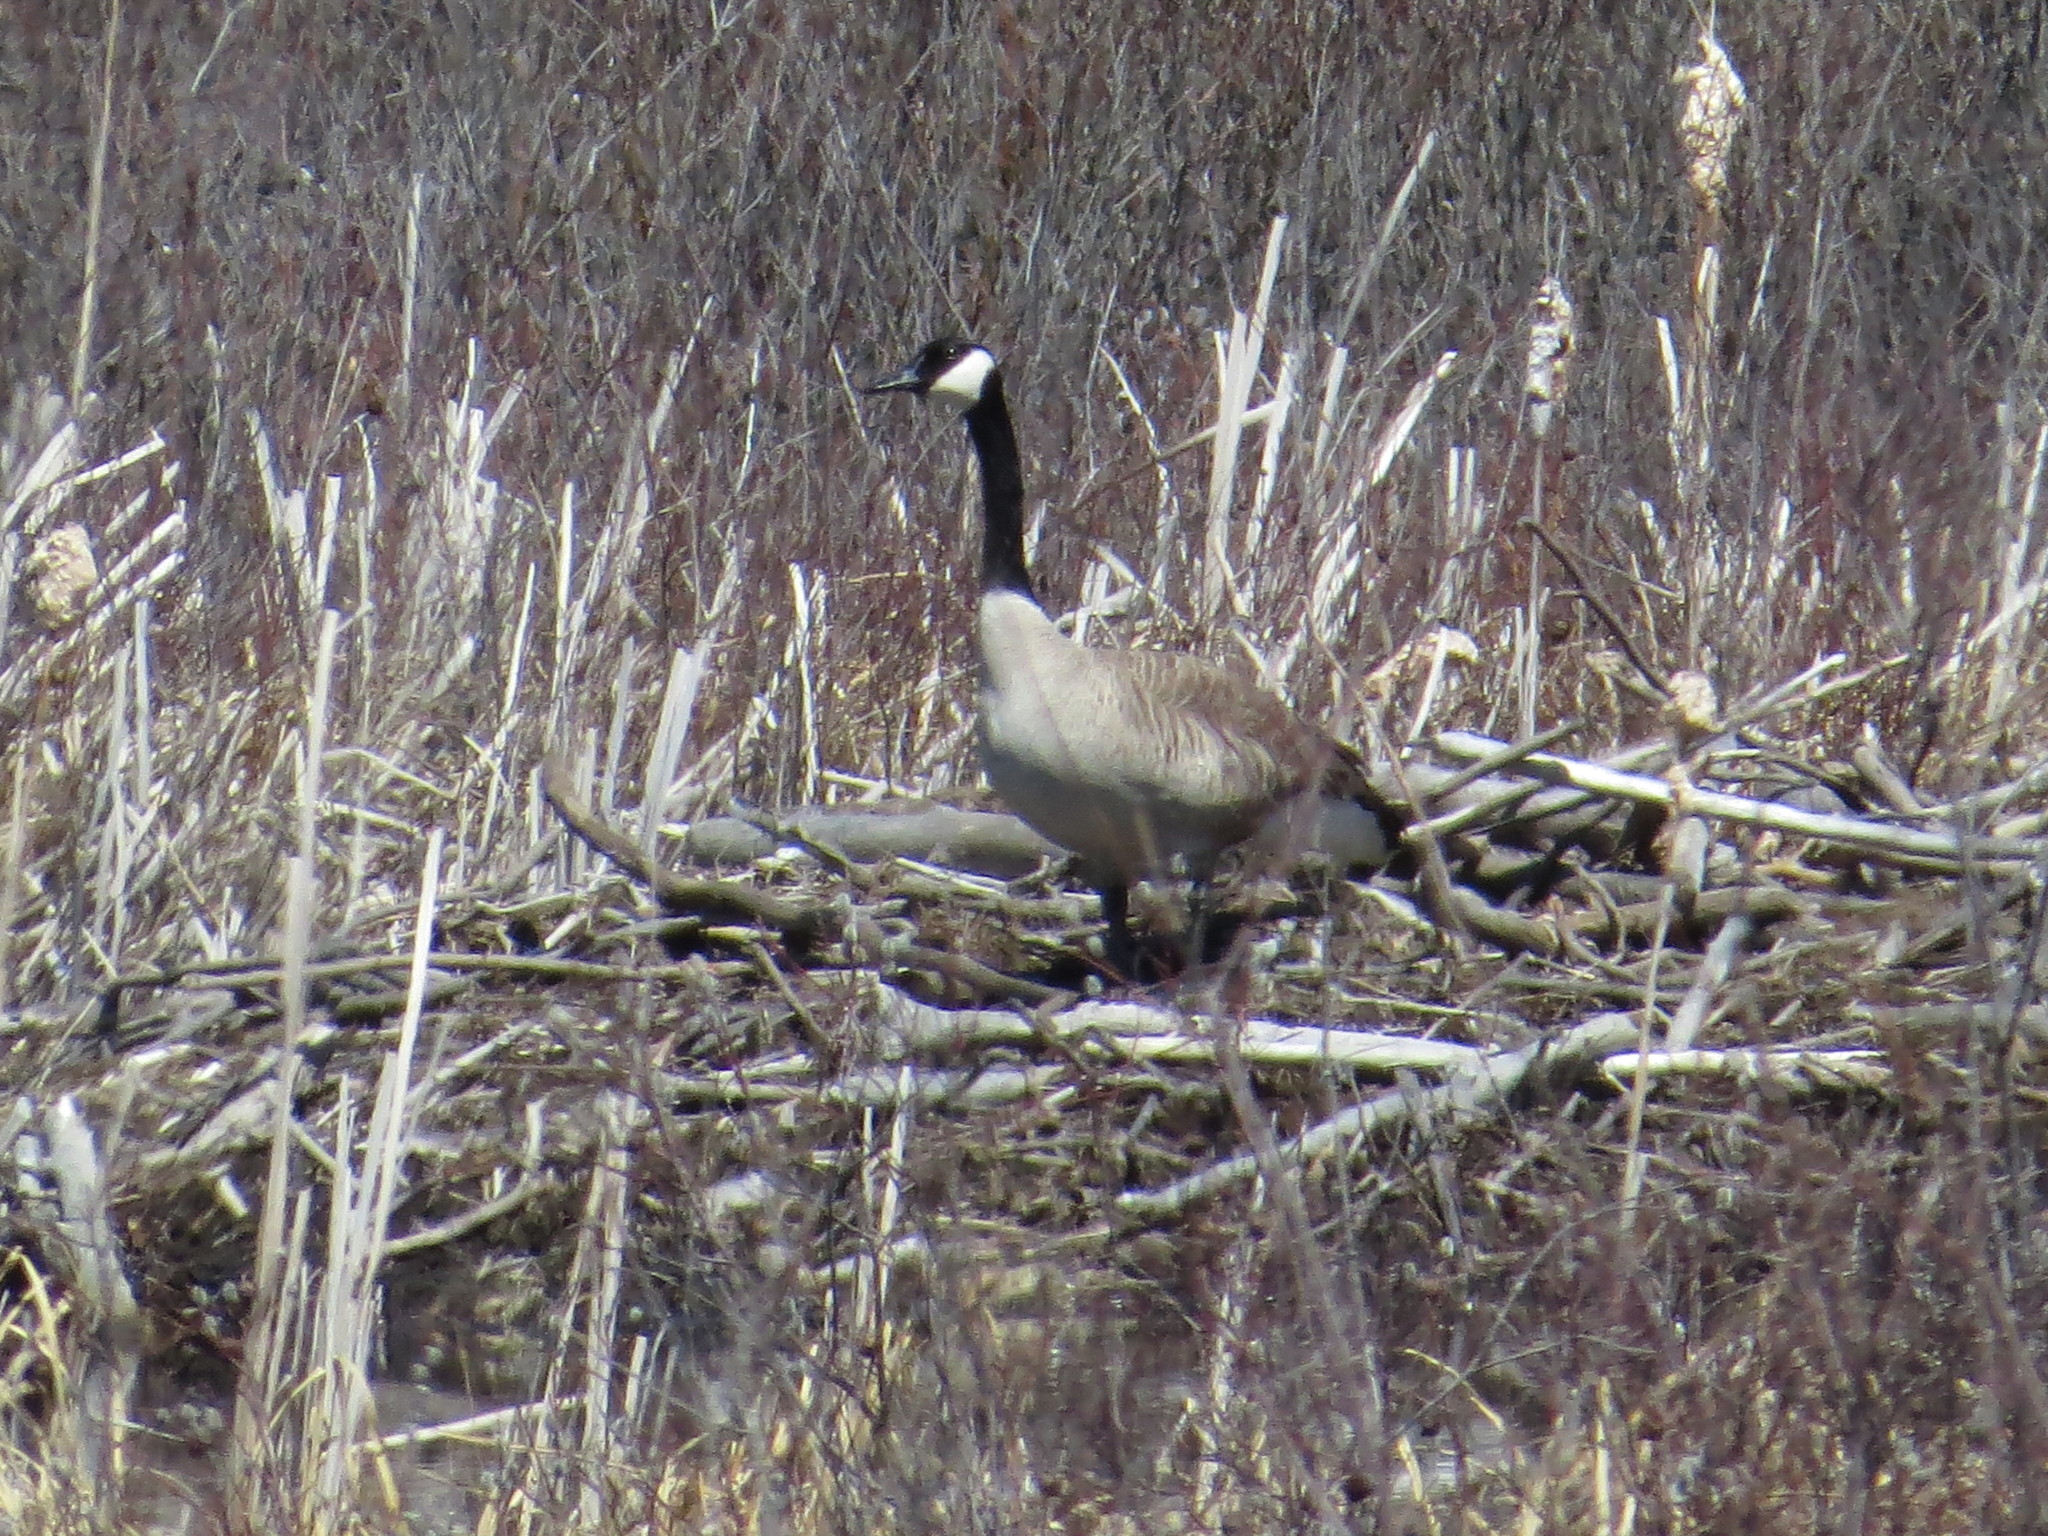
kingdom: Animalia
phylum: Chordata
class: Aves
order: Anseriformes
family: Anatidae
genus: Branta
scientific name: Branta canadensis
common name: Canada goose
